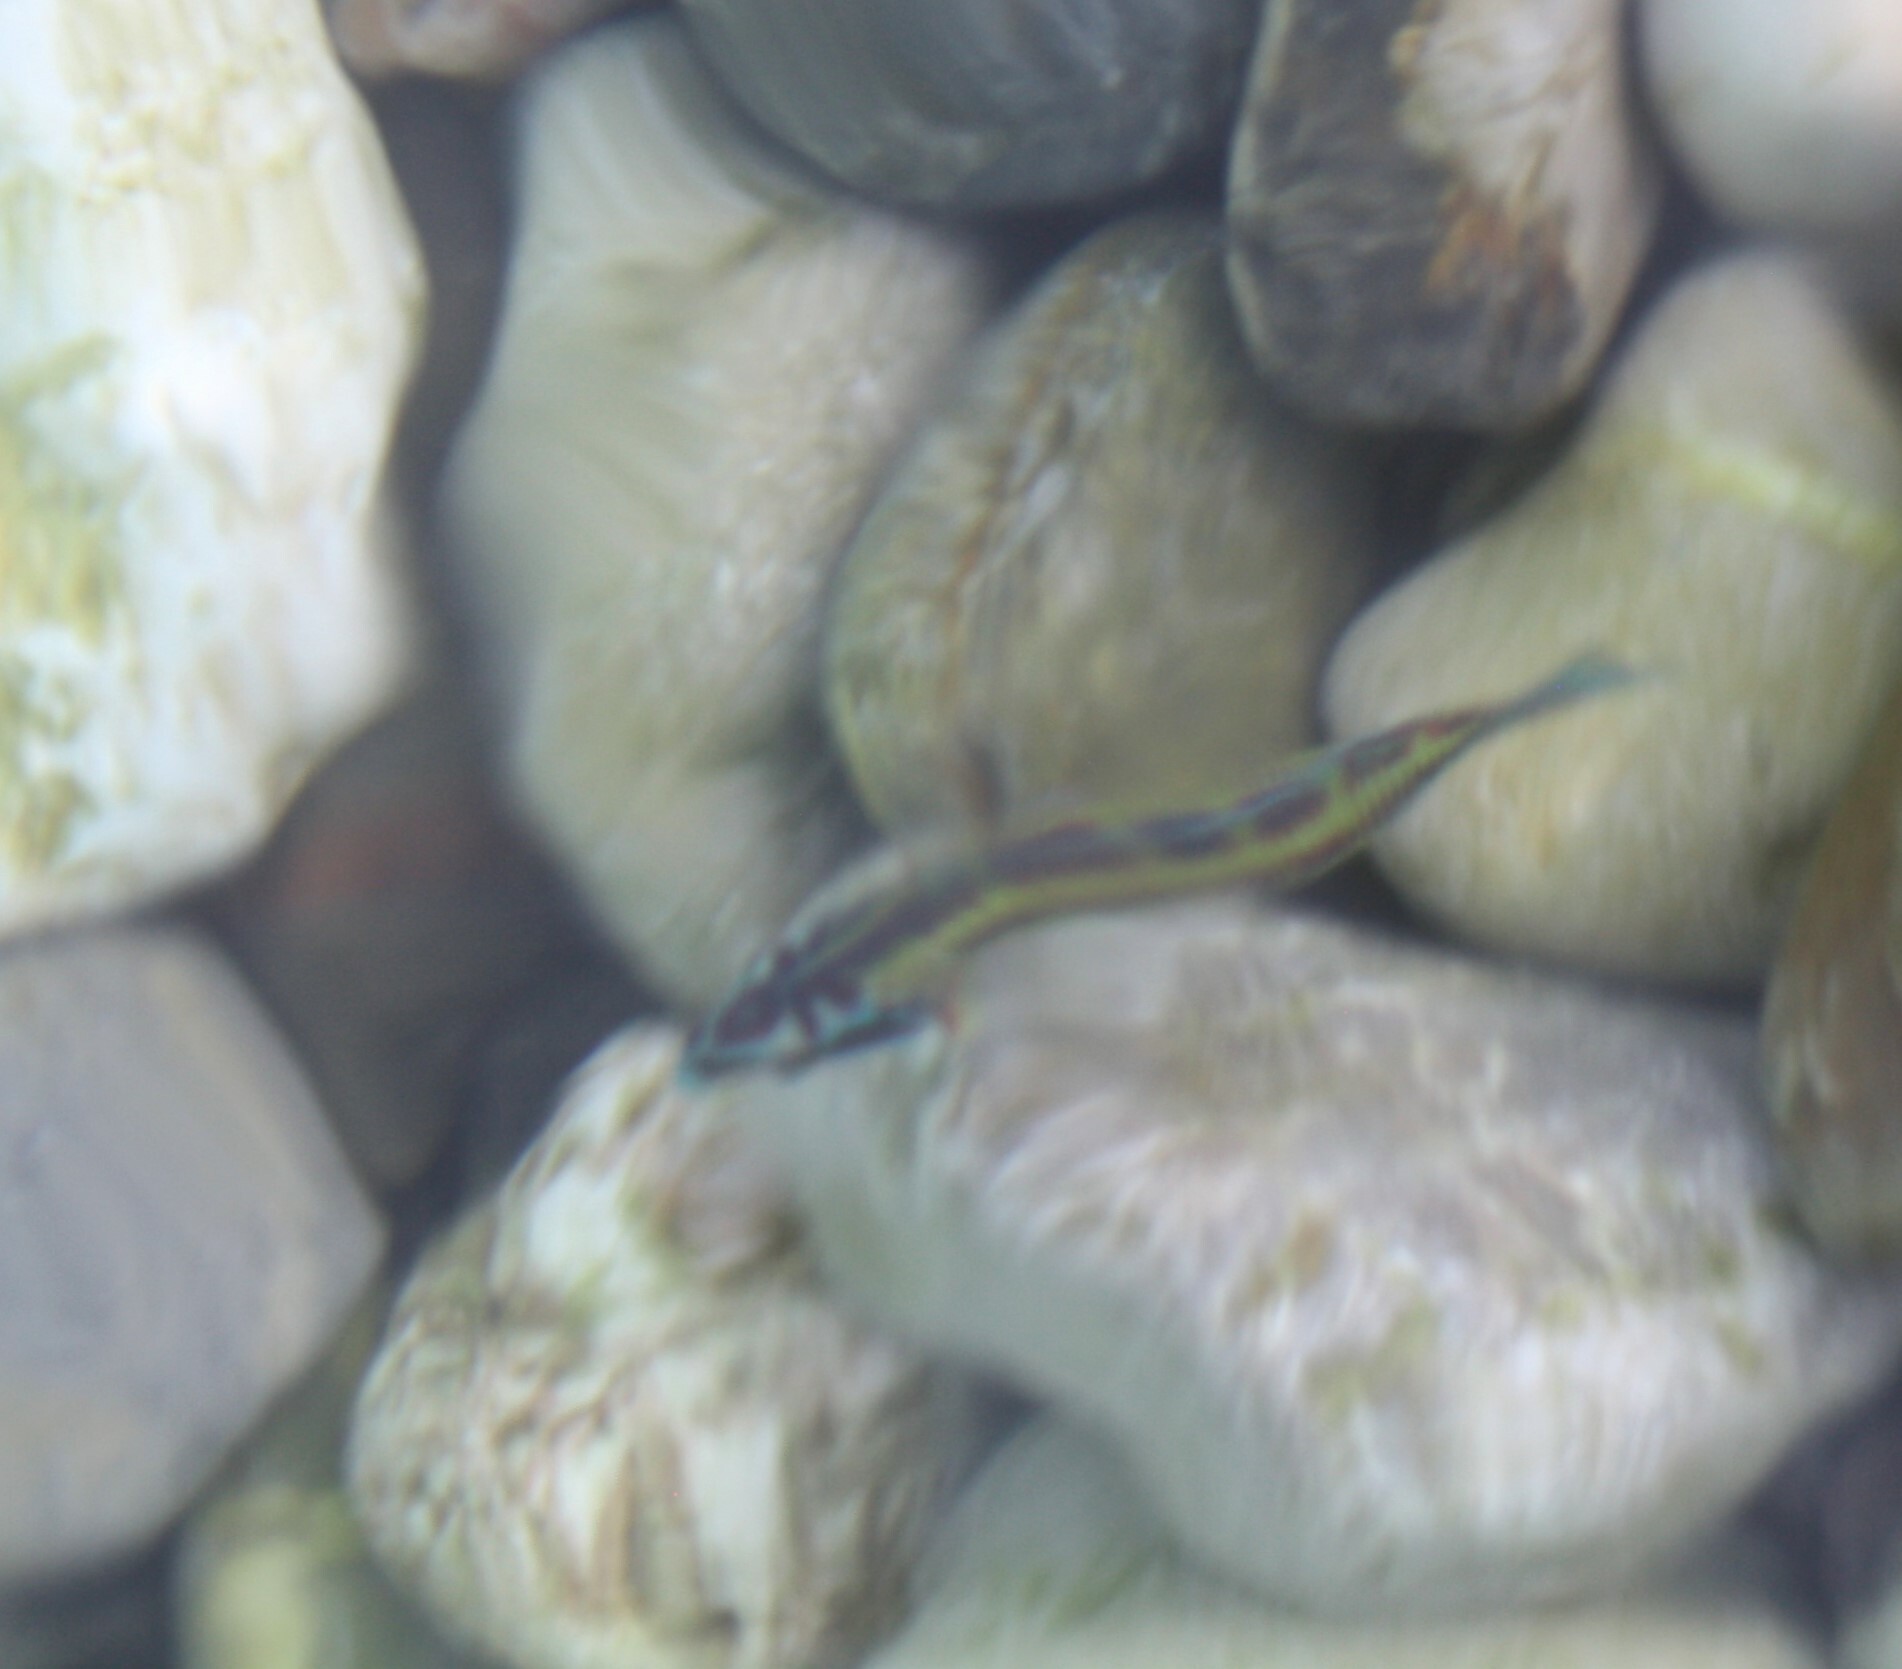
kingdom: Animalia
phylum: Chordata
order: Perciformes
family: Labridae
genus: Thalassoma
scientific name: Thalassoma pavo
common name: Ornate wrasse
